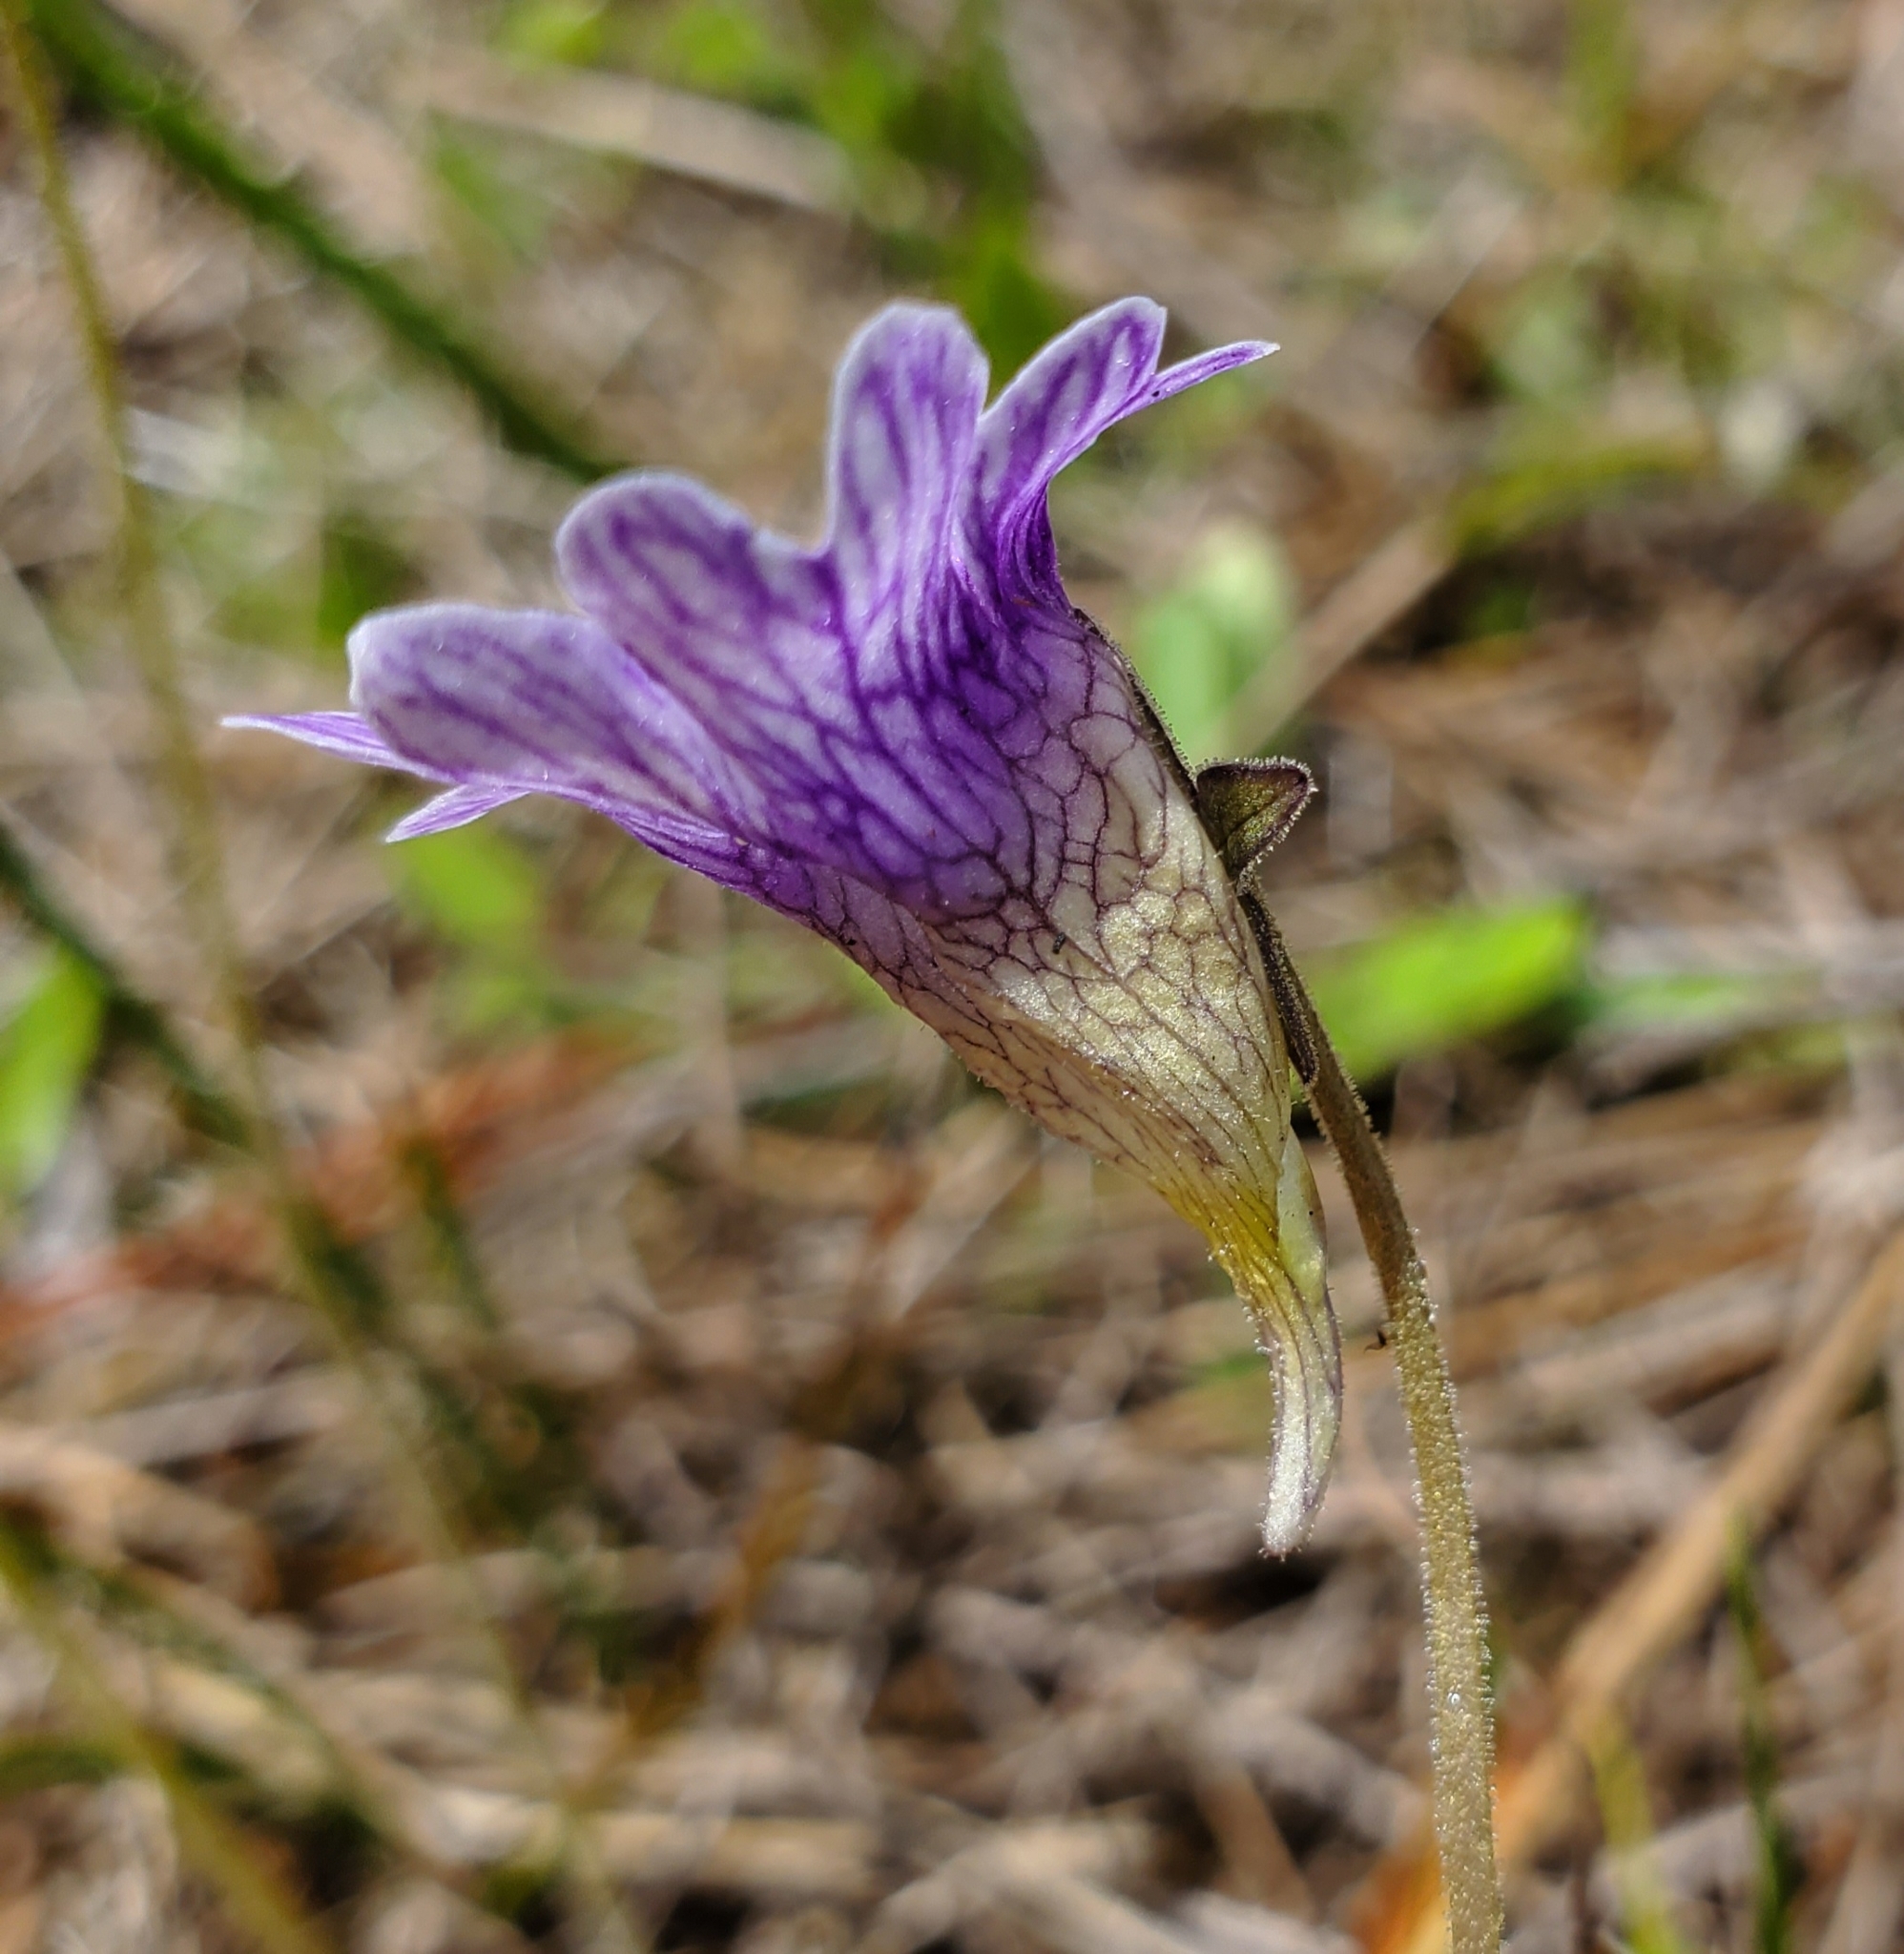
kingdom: Plantae
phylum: Tracheophyta
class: Magnoliopsida
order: Lamiales
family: Lentibulariaceae
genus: Pinguicula
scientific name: Pinguicula caerulea
